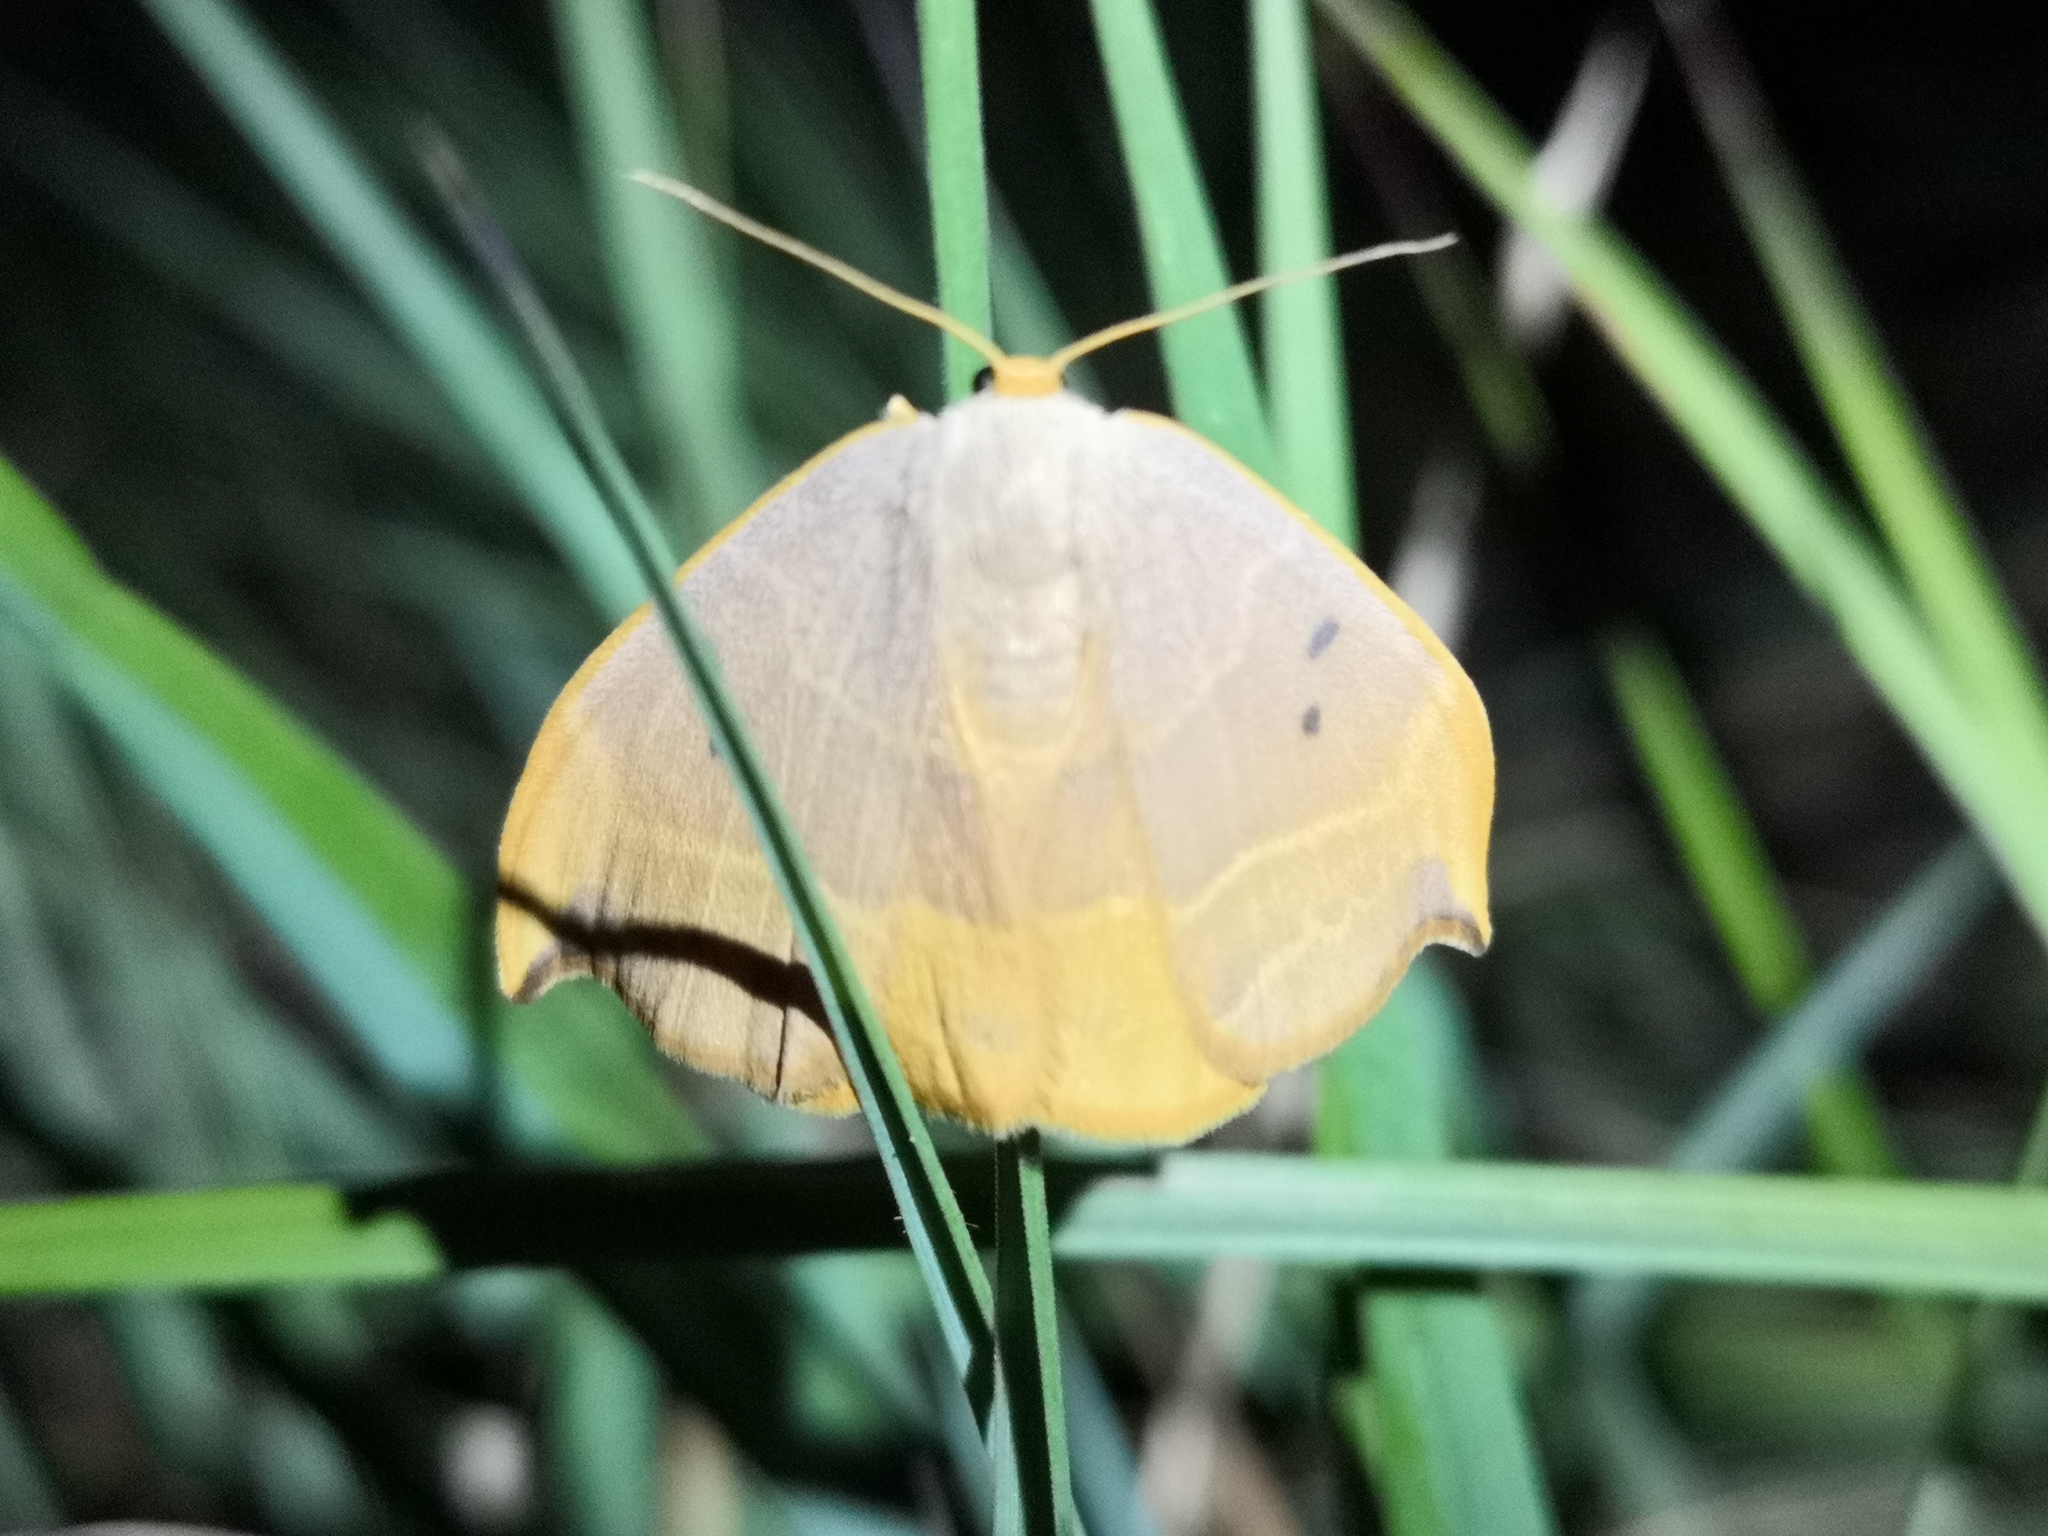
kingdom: Animalia
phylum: Arthropoda
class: Insecta
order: Lepidoptera
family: Drepanidae
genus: Watsonalla
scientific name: Watsonalla binaria
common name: Oak hook-tip
